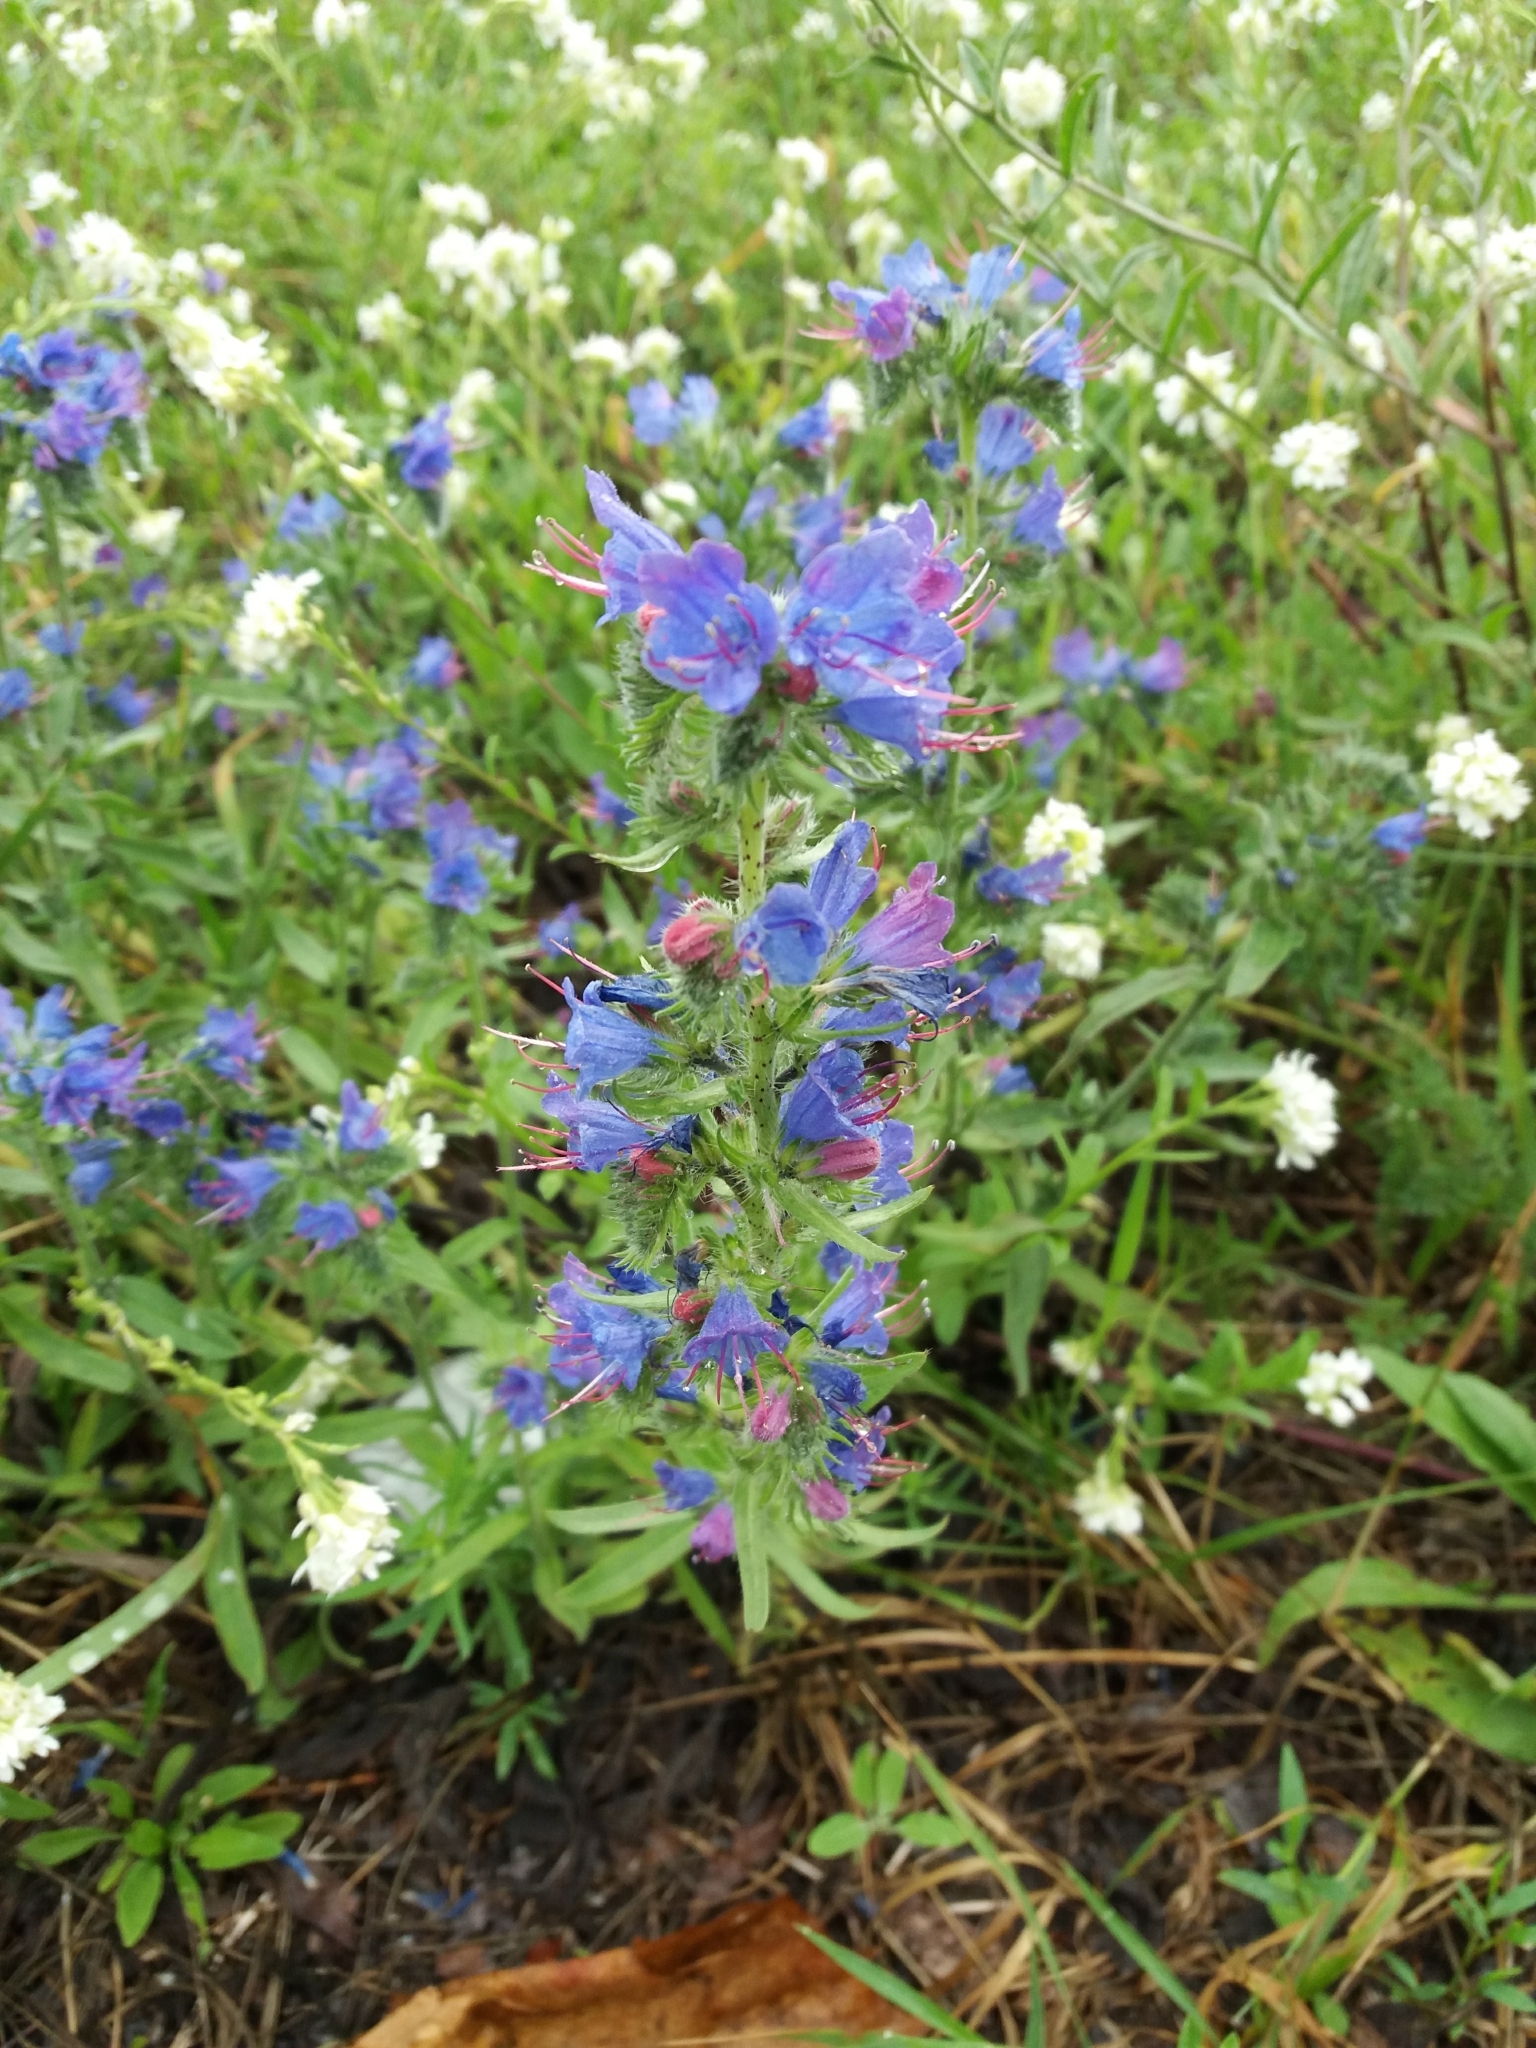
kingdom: Plantae
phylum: Tracheophyta
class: Magnoliopsida
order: Boraginales
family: Boraginaceae
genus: Echium
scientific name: Echium vulgare
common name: Common viper's bugloss
